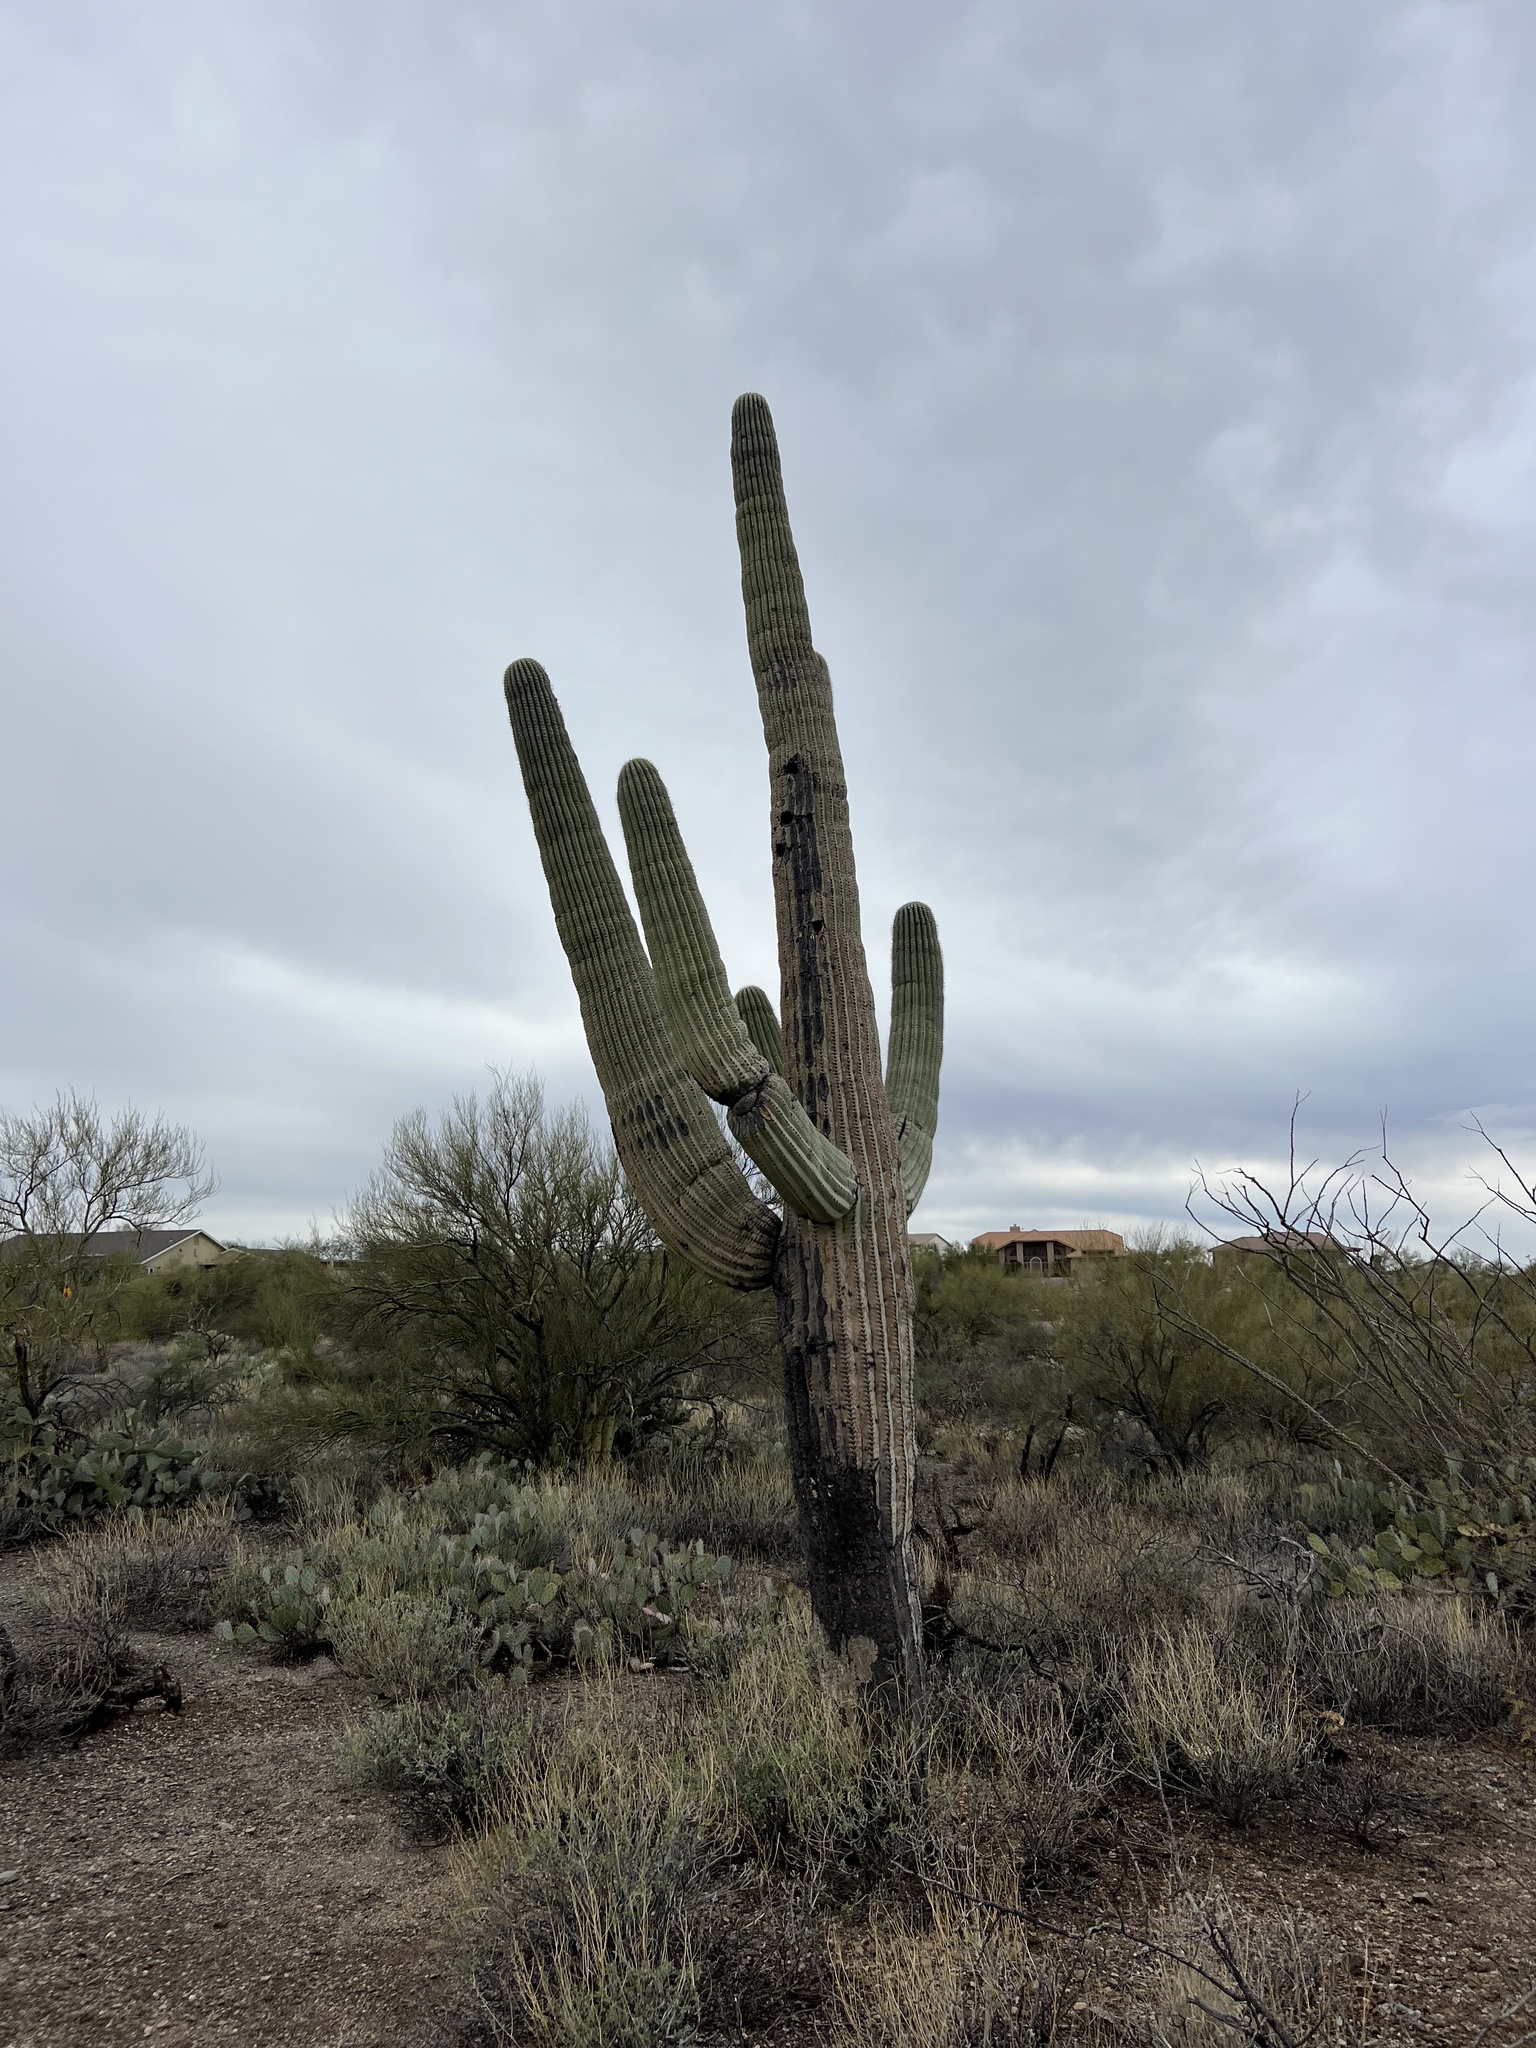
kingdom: Plantae
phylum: Tracheophyta
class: Magnoliopsida
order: Caryophyllales
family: Cactaceae
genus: Carnegiea
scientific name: Carnegiea gigantea
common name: Saguaro
